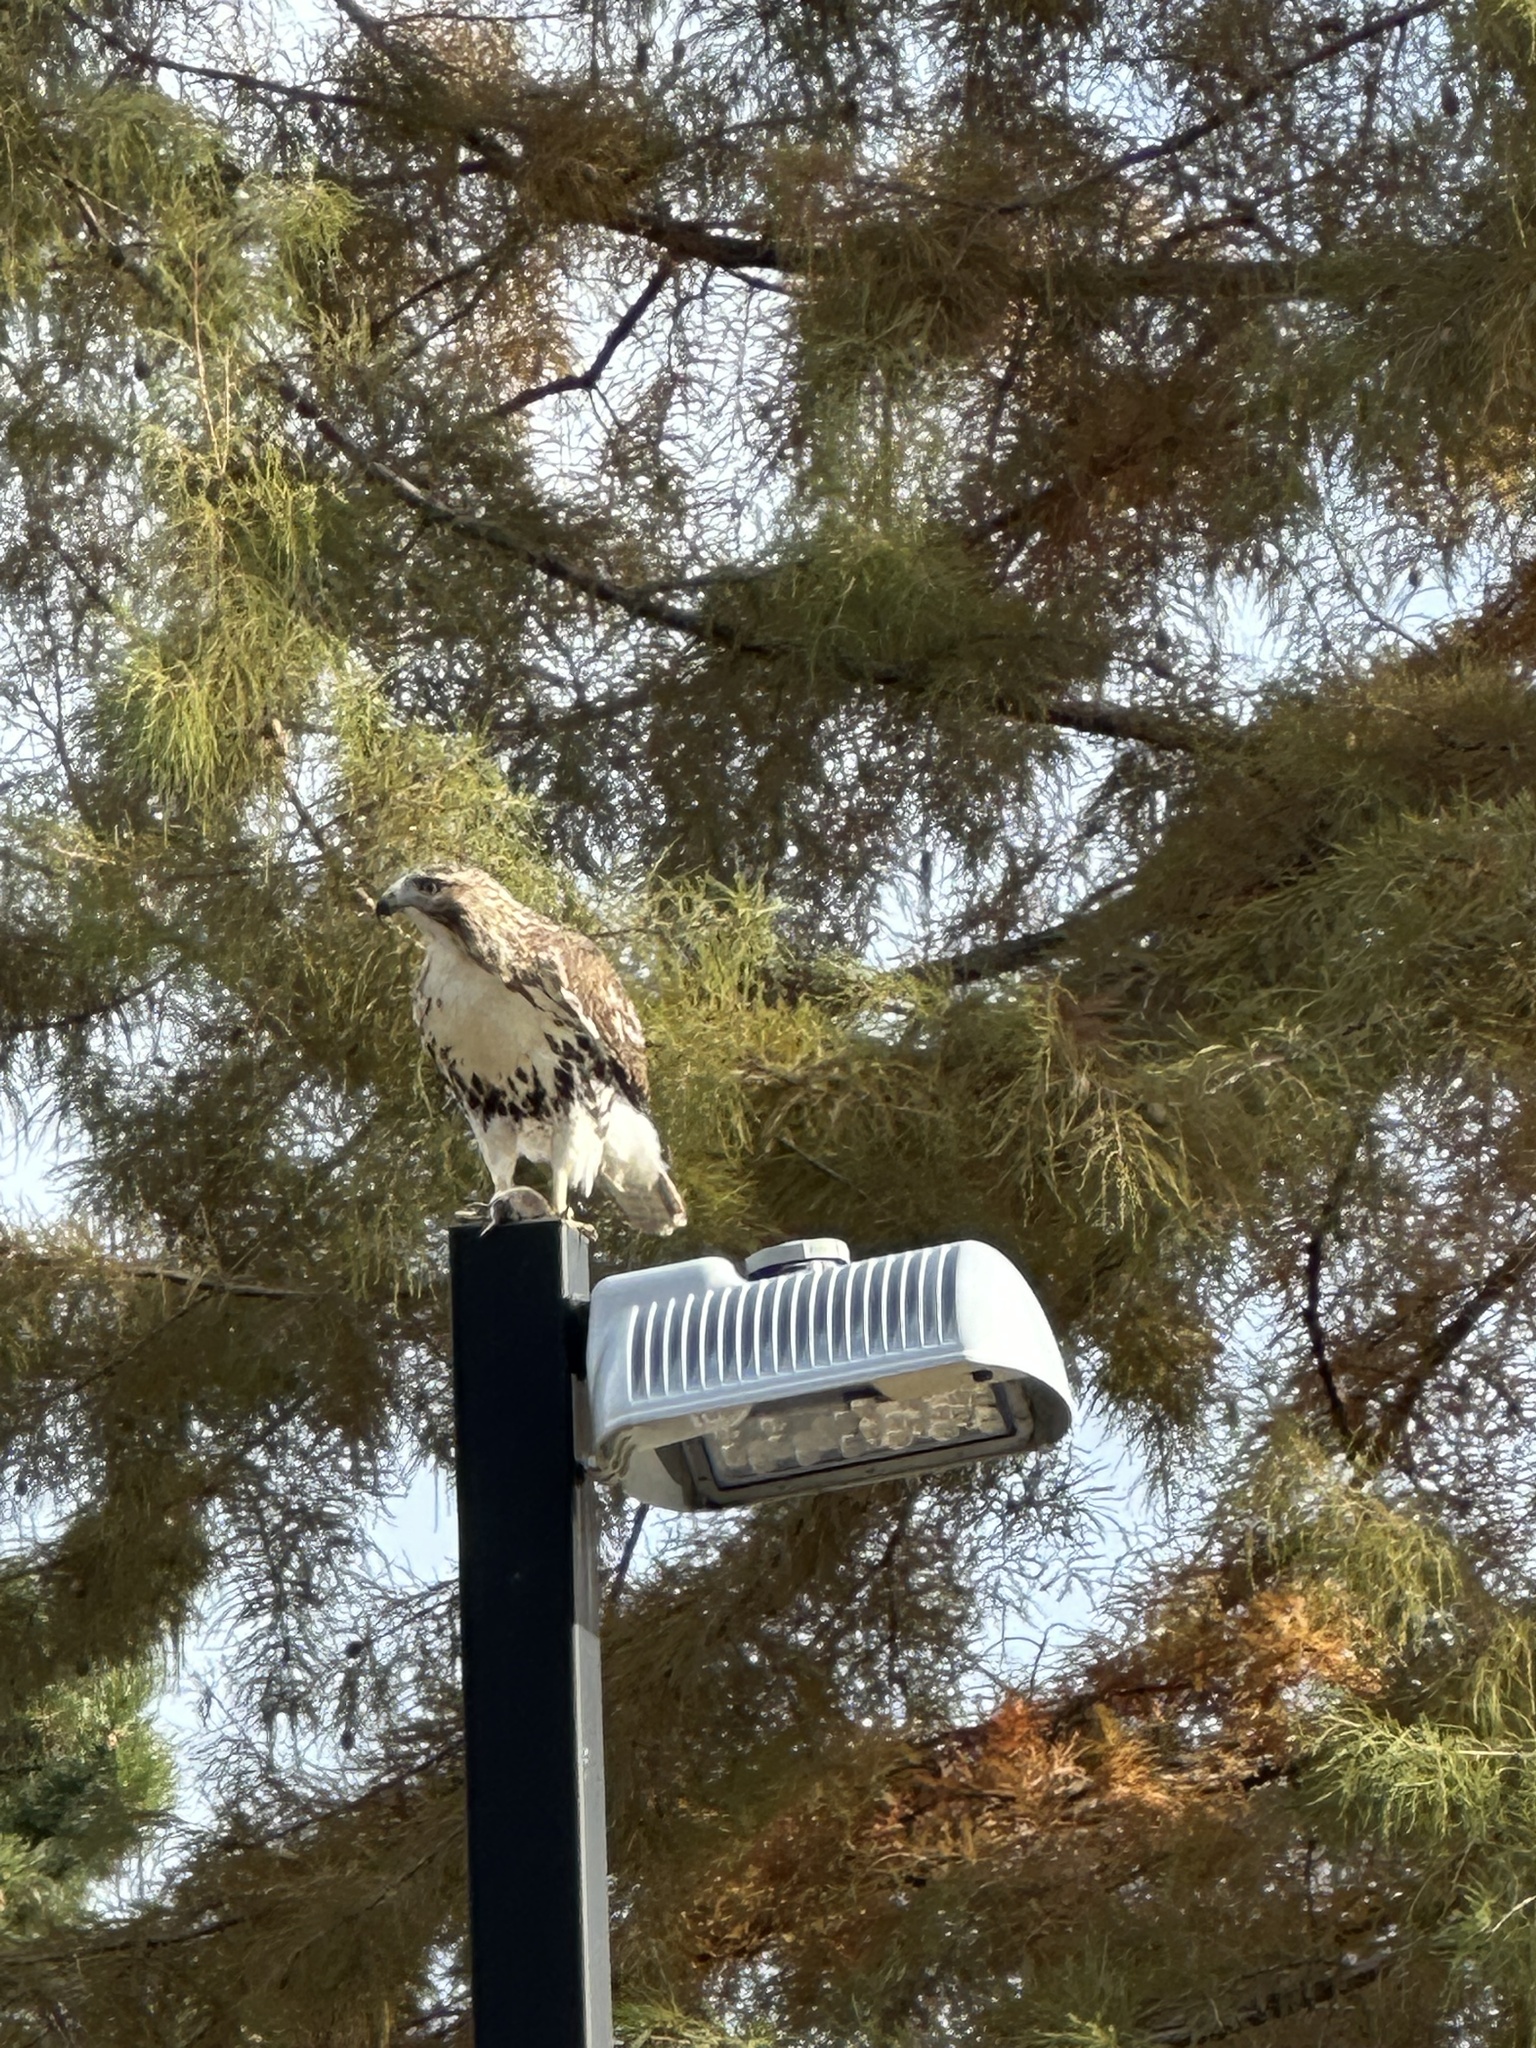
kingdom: Animalia
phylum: Chordata
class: Aves
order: Accipitriformes
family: Accipitridae
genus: Buteo
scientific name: Buteo jamaicensis
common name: Red-tailed hawk
